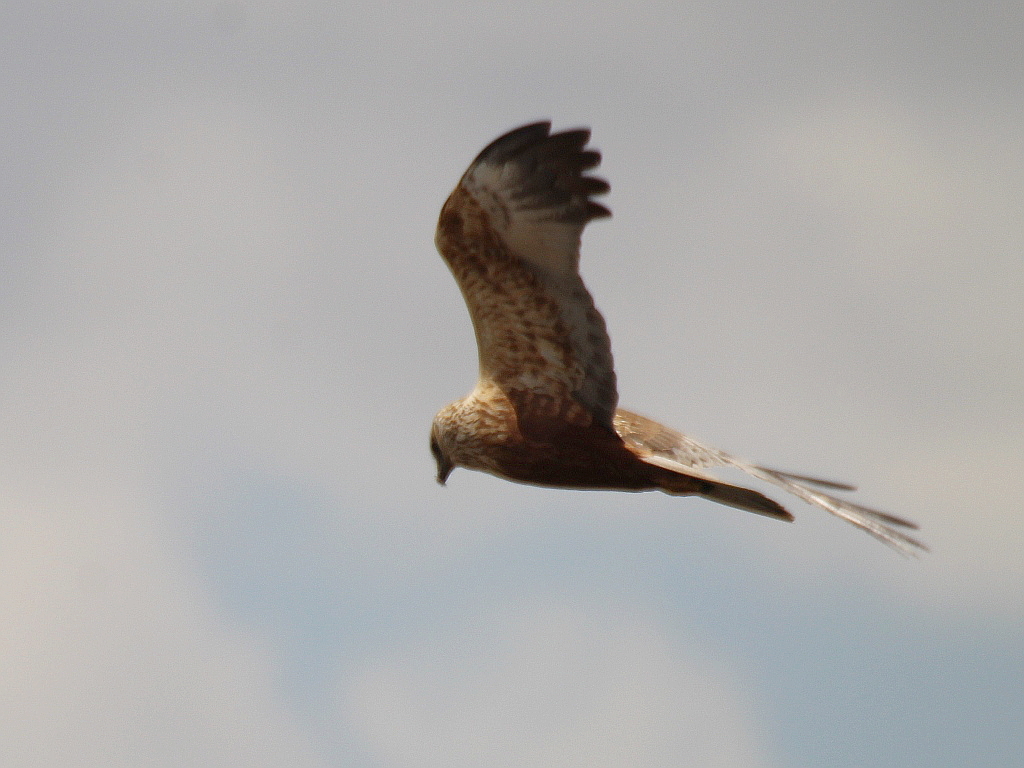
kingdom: Animalia
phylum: Chordata
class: Aves
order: Accipitriformes
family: Accipitridae
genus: Circus
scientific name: Circus aeruginosus
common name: Western marsh harrier
